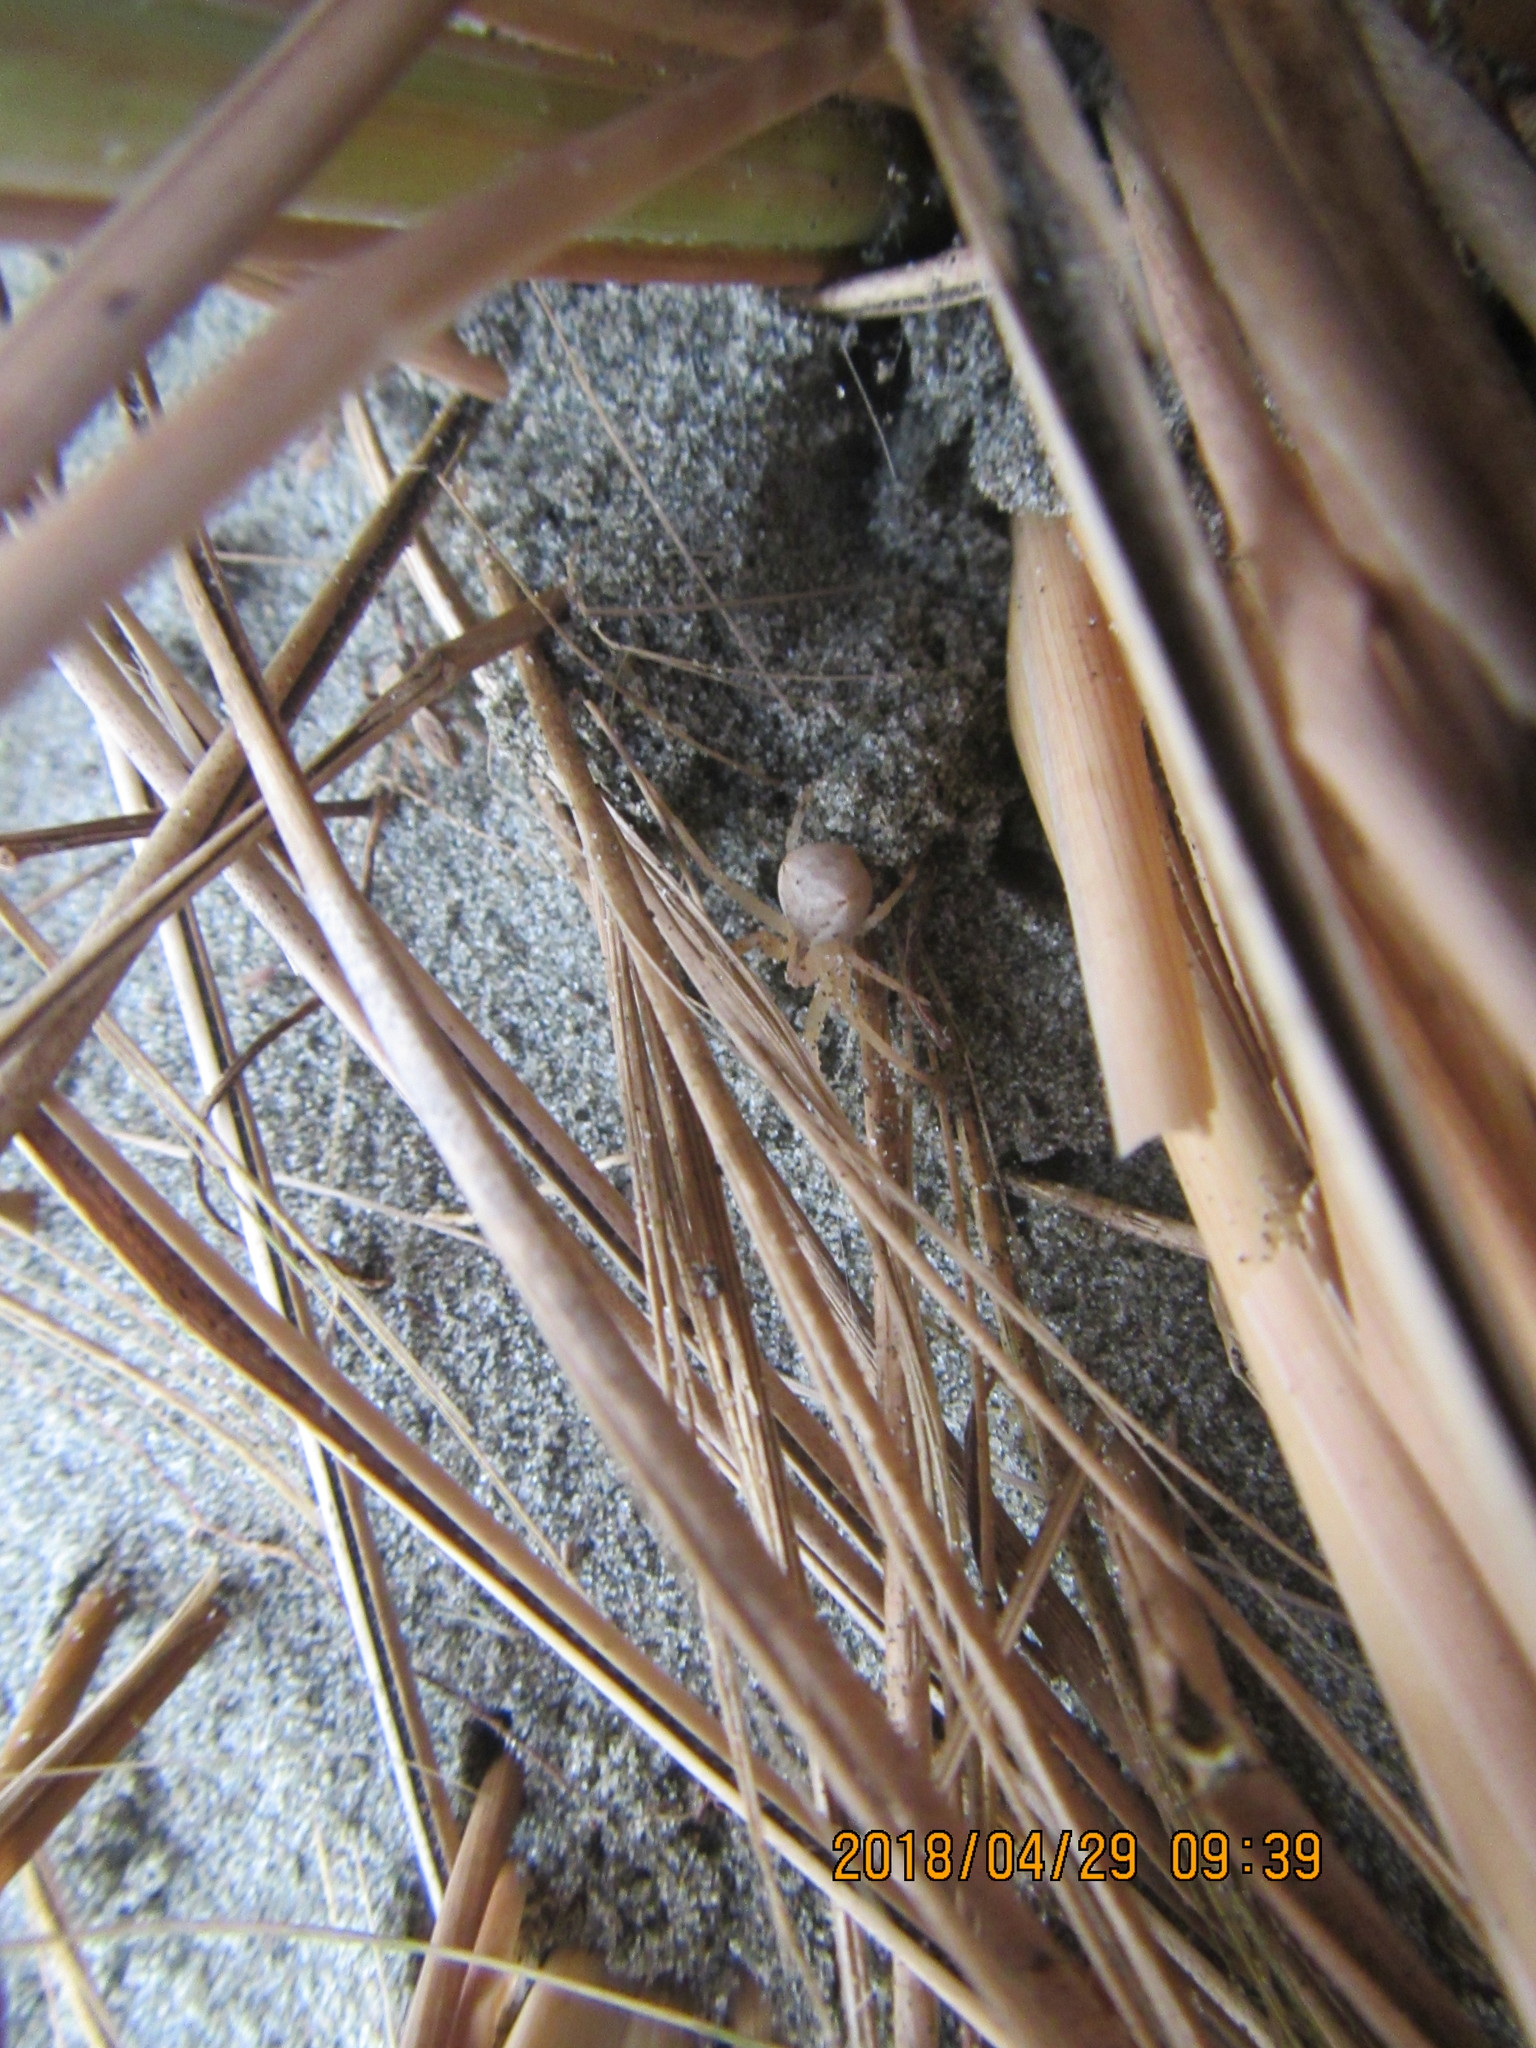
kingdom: Animalia
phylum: Arthropoda
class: Arachnida
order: Araneae
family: Thomisidae
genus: Sidymella
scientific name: Sidymella trapezia
